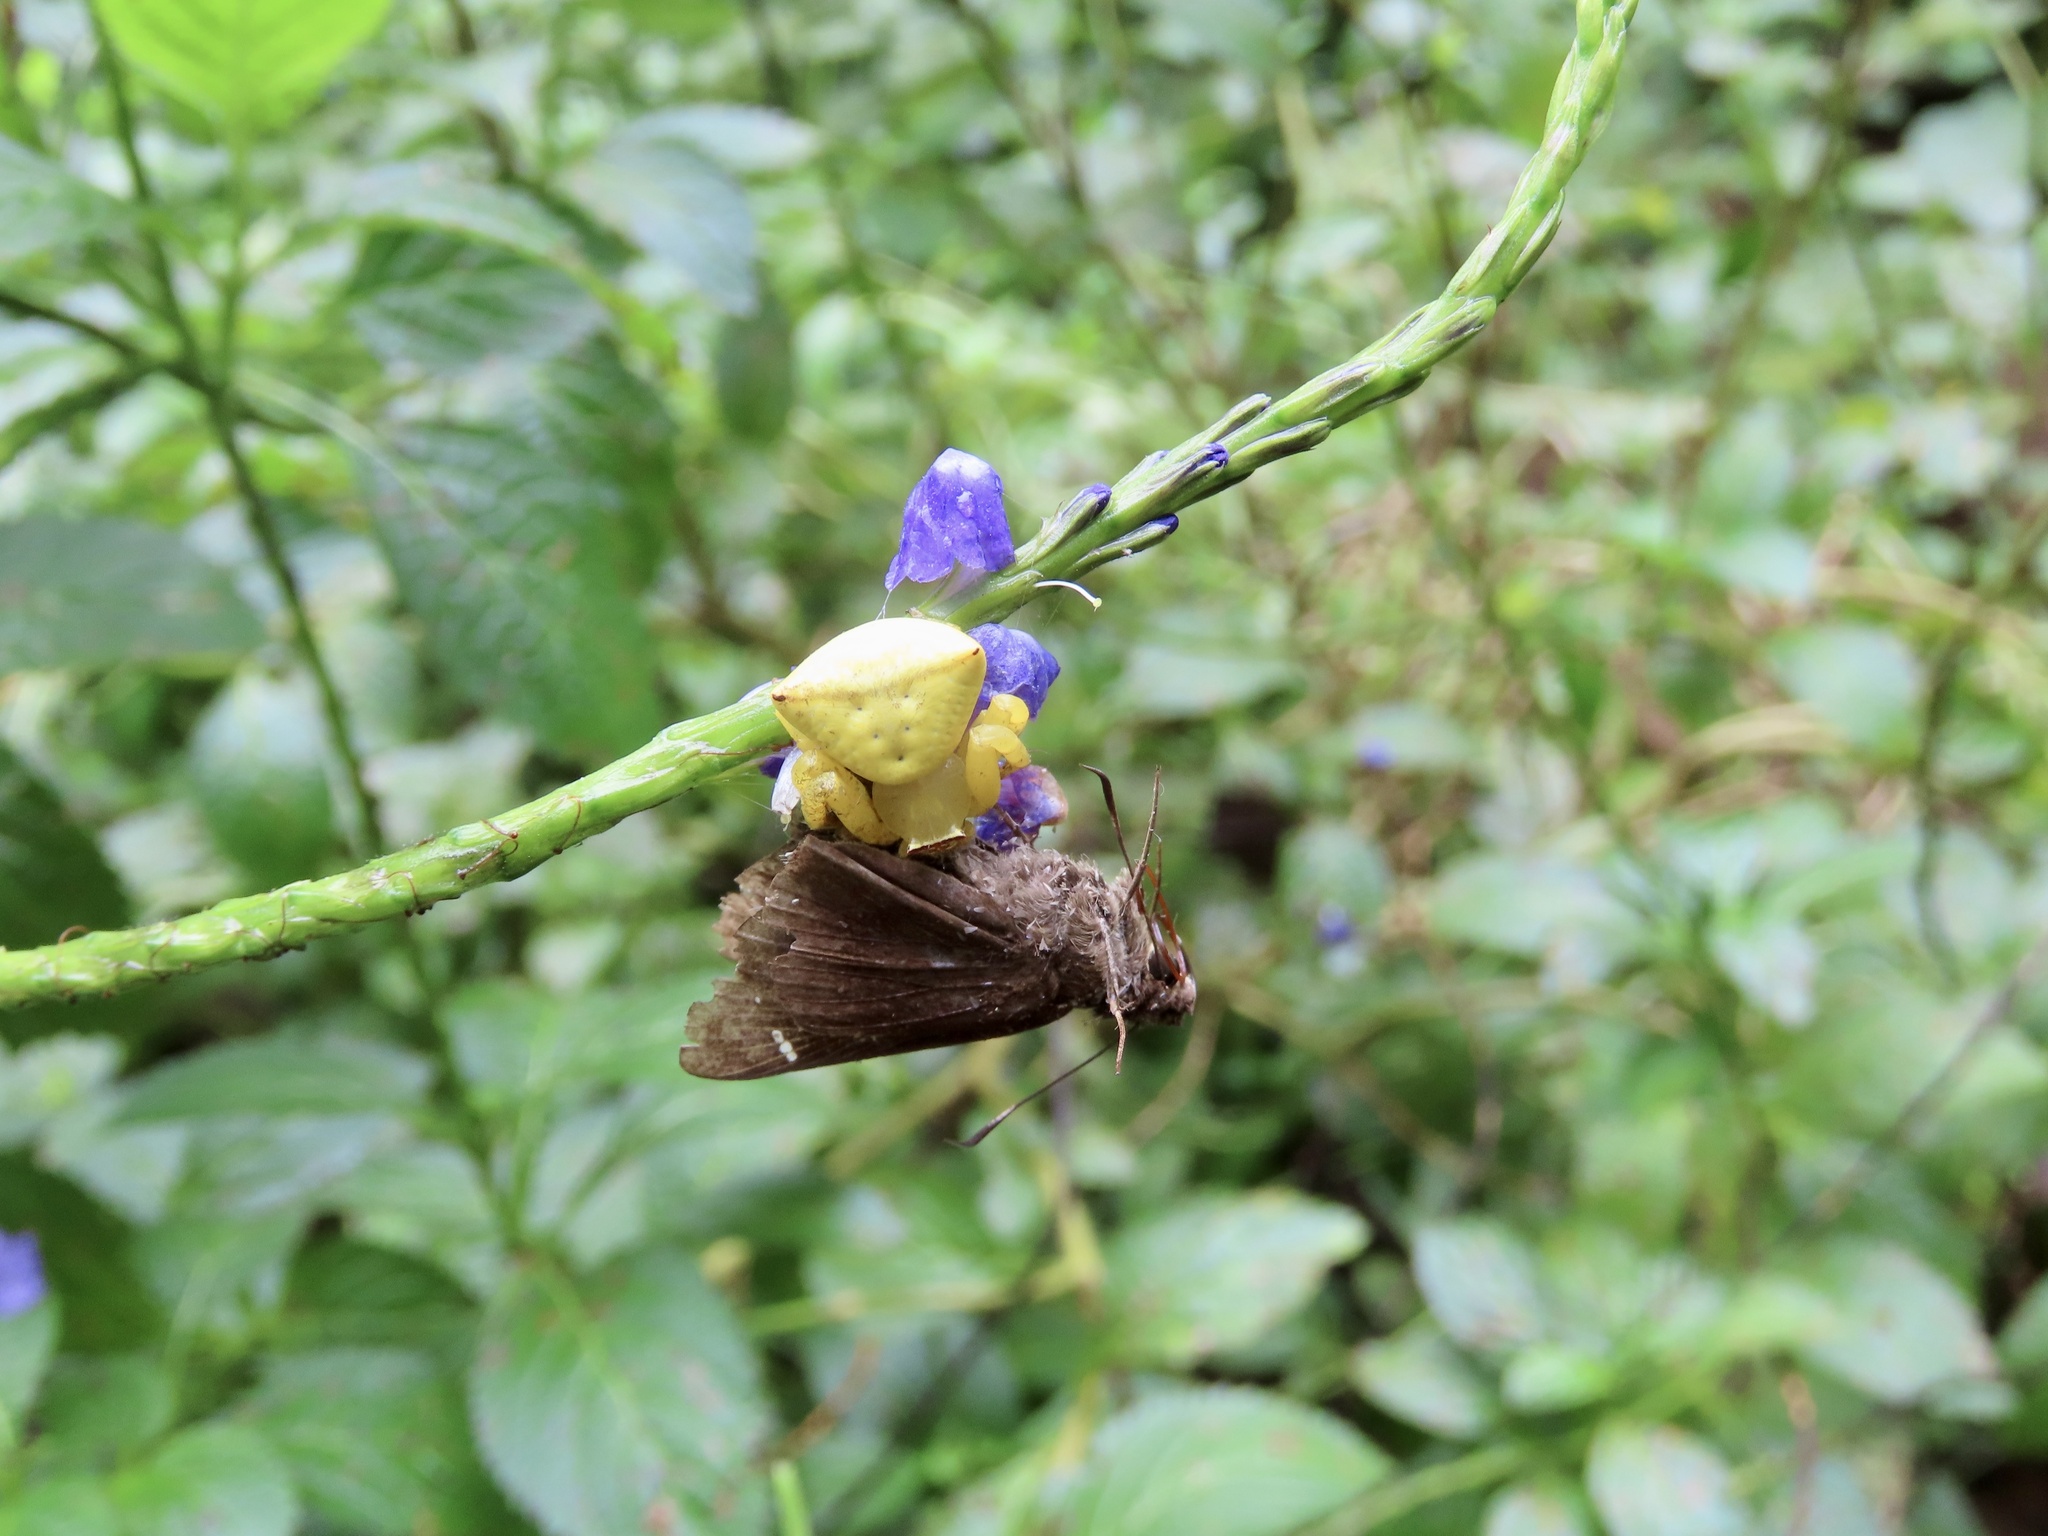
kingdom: Animalia
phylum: Arthropoda
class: Arachnida
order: Araneae
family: Thomisidae
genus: Thomisus
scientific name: Thomisus labefactus
